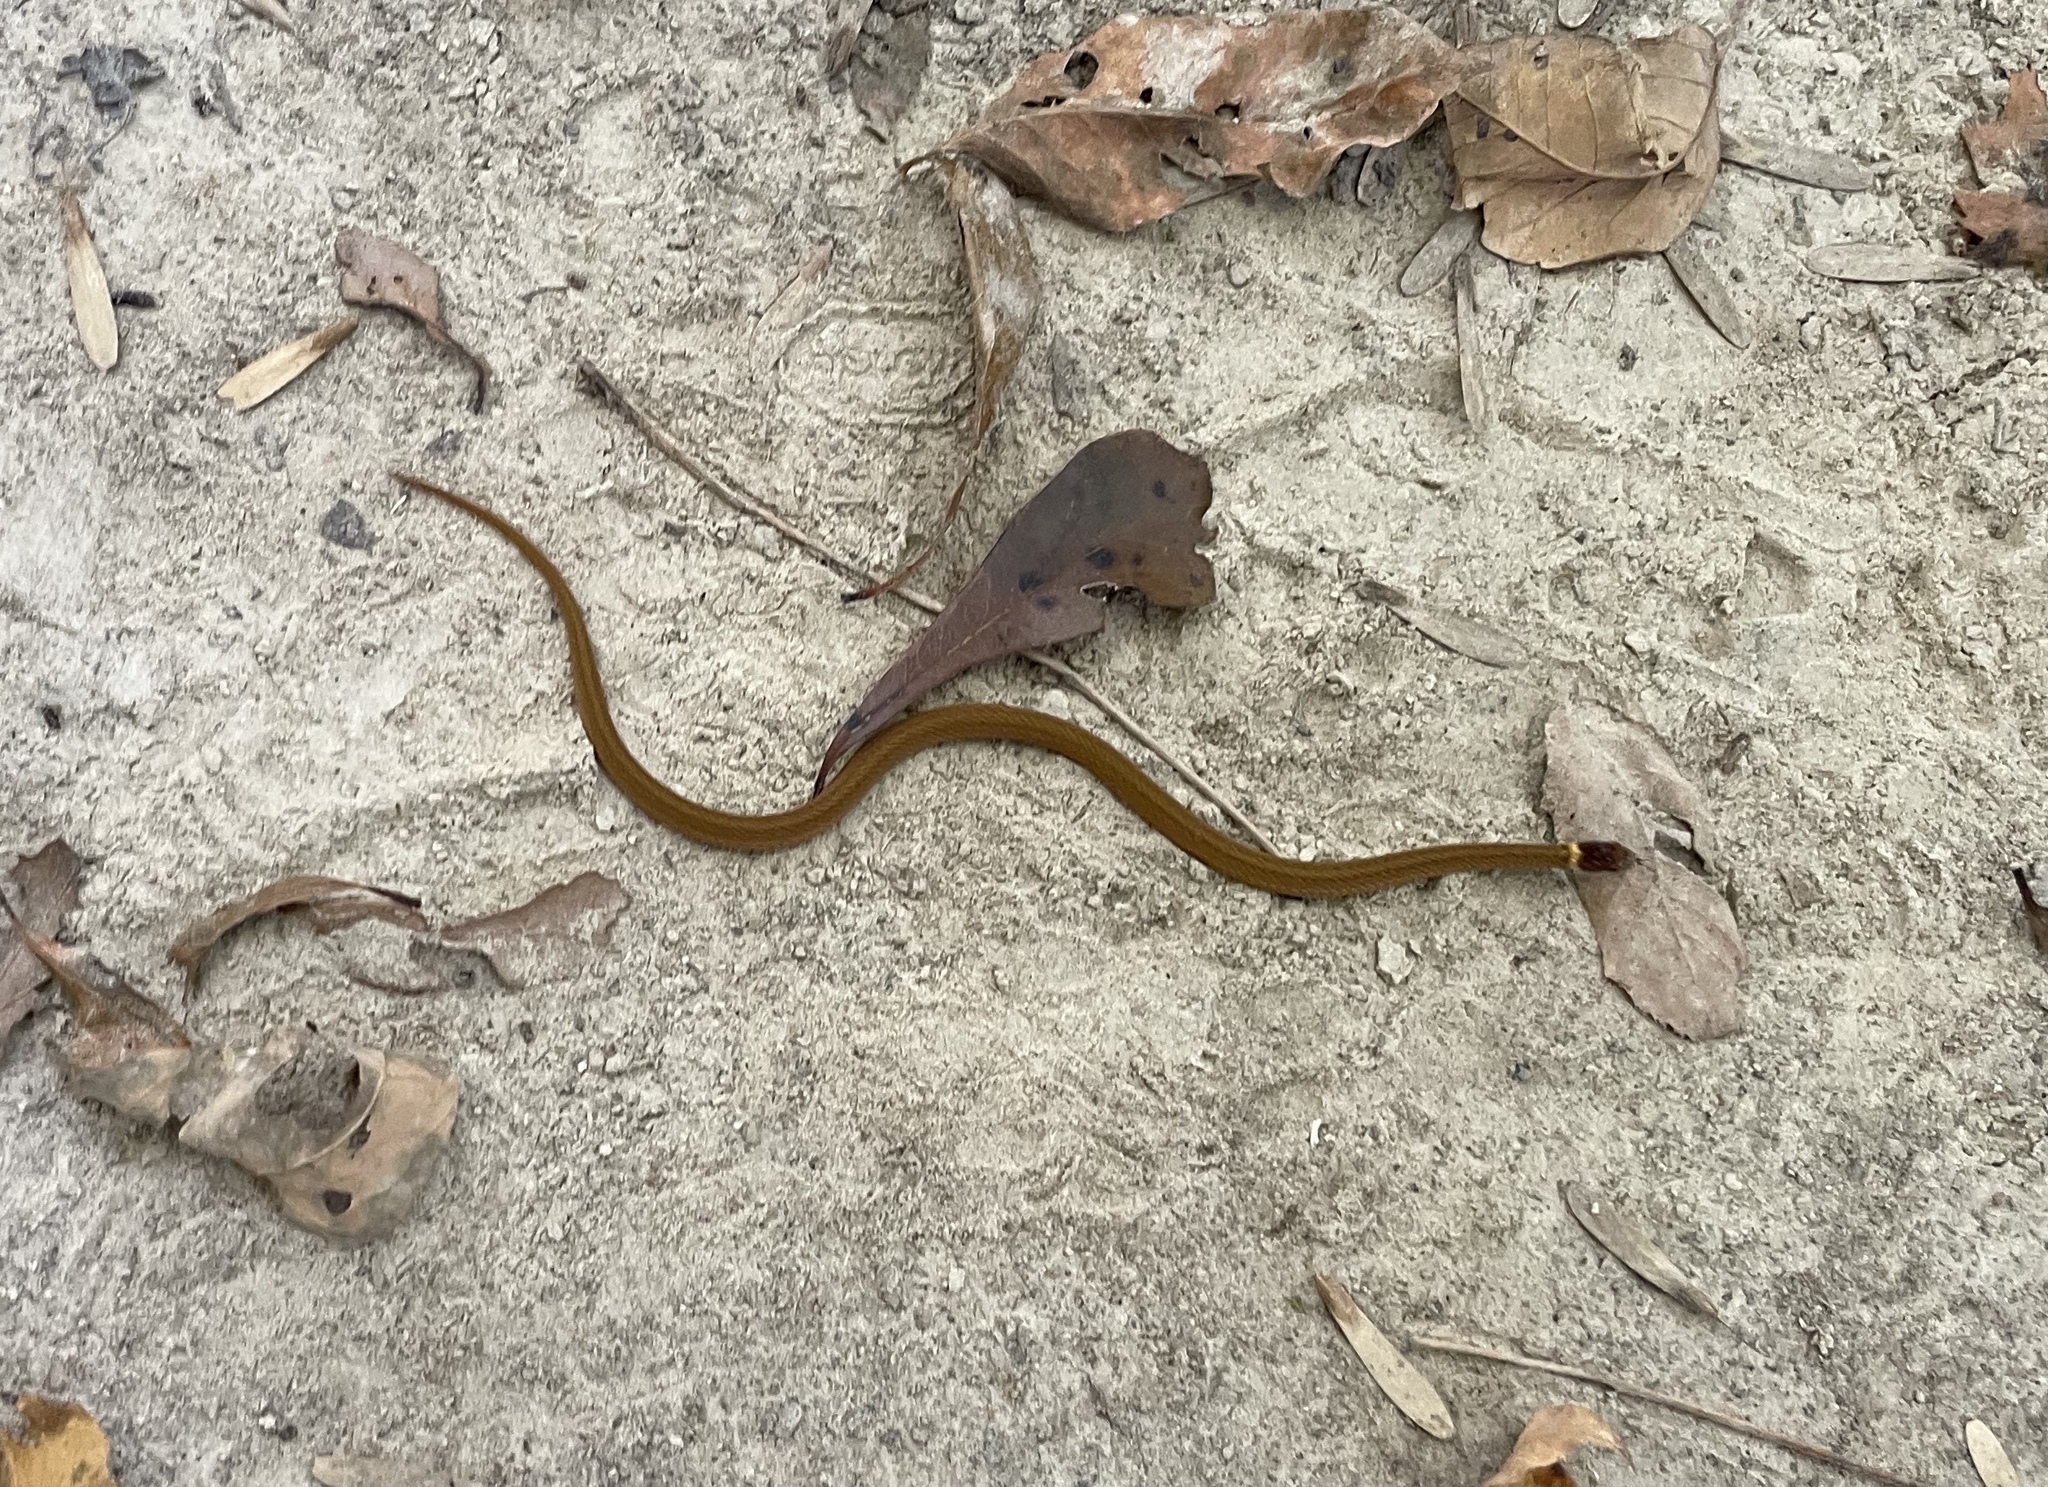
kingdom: Animalia
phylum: Chordata
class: Squamata
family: Colubridae
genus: Storeria
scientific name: Storeria occipitomaculata
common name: Redbelly snake
